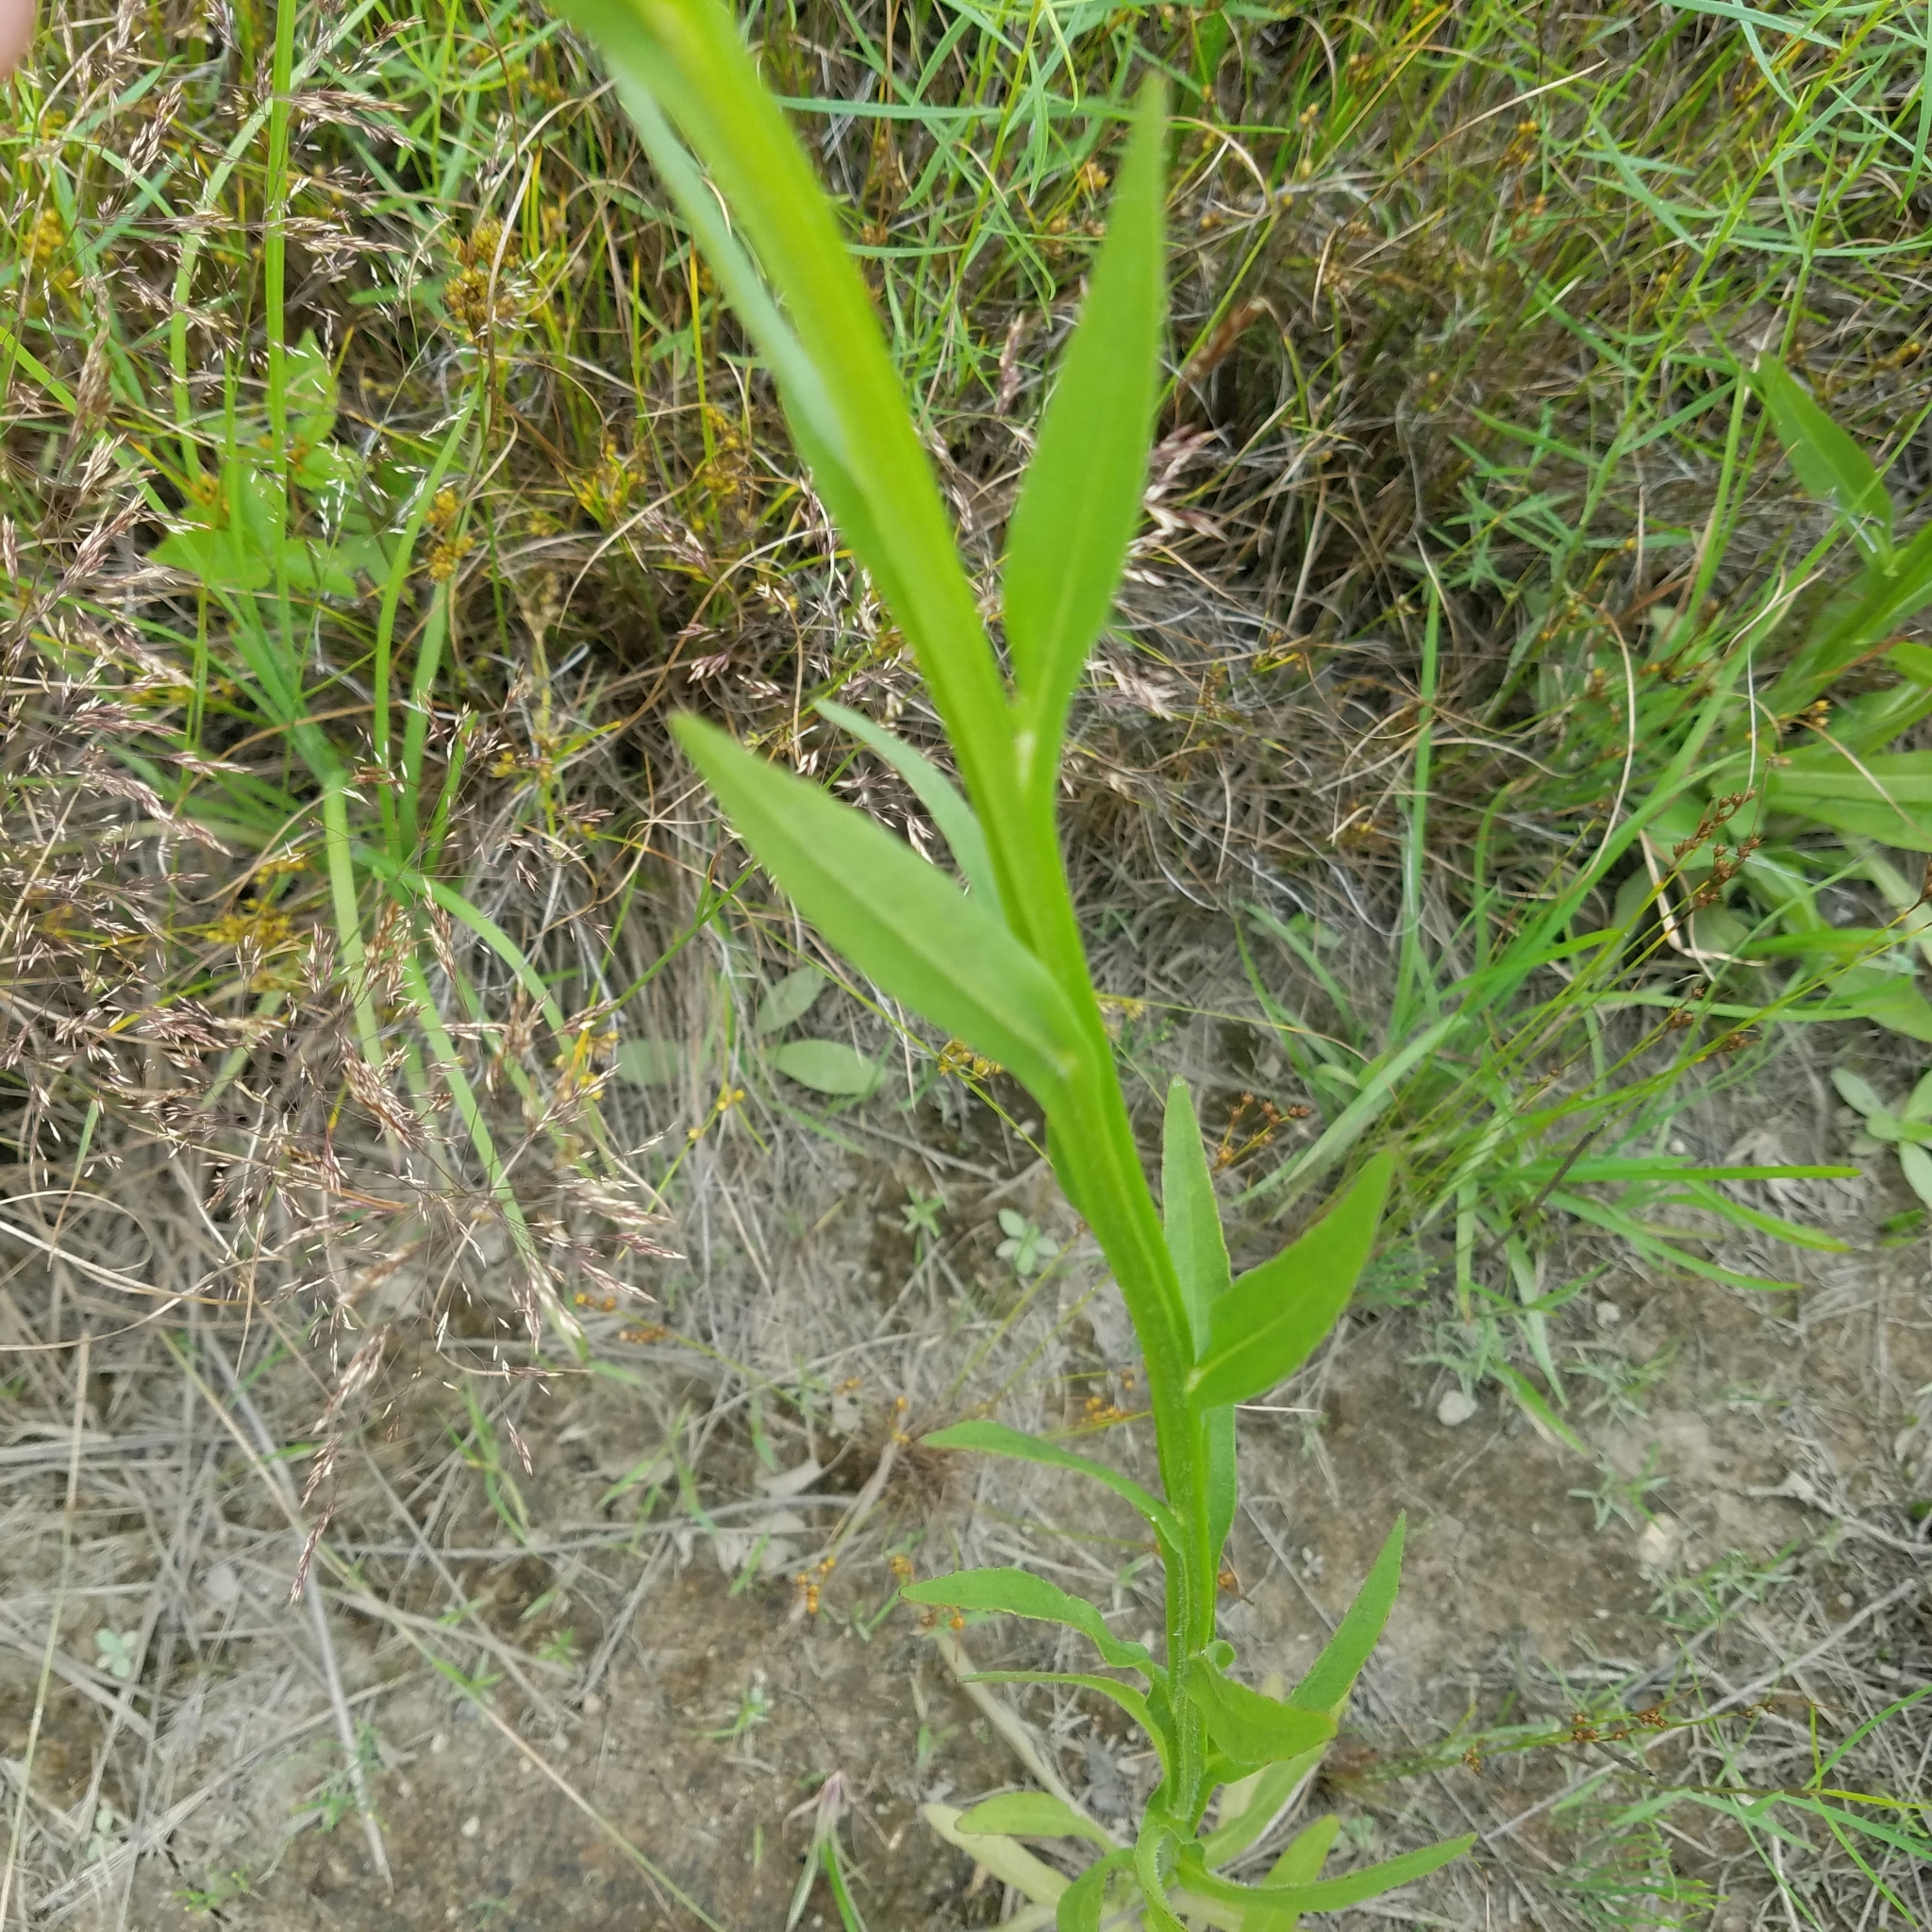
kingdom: Plantae
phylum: Tracheophyta
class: Magnoliopsida
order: Asterales
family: Asteraceae
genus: Helenium
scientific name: Helenium flexuosum
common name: Naked-flowered sneezeweed
